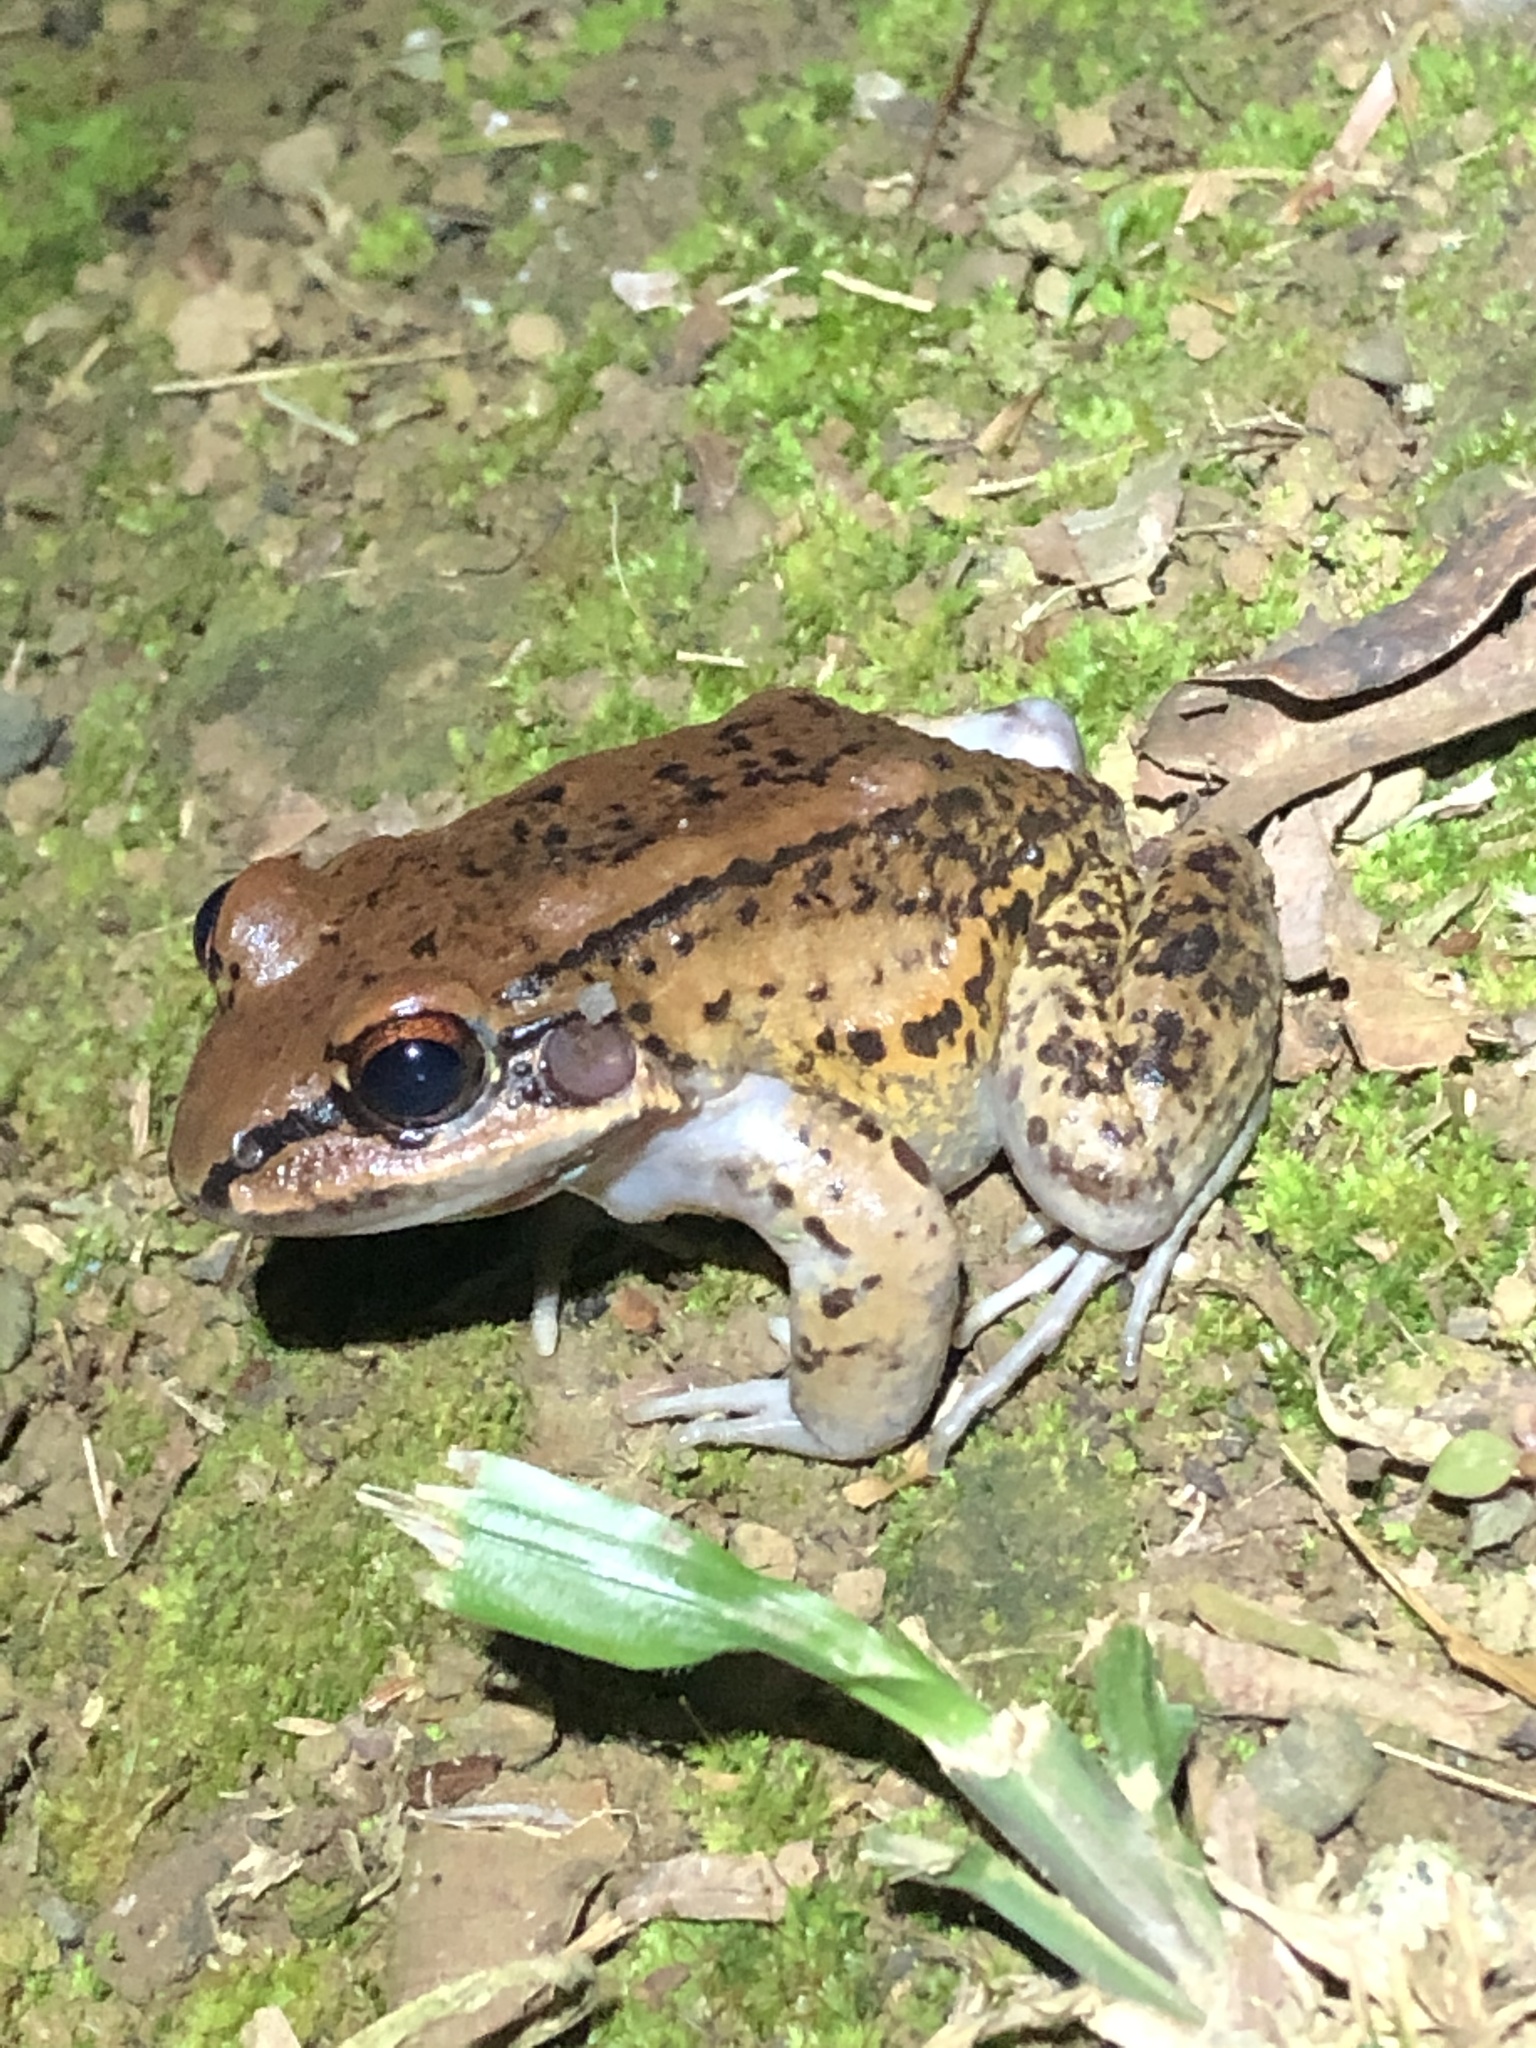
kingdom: Animalia
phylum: Chordata
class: Amphibia
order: Anura
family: Leptodactylidae
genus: Leptodactylus
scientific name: Leptodactylus rhodonotus
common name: Peru white-lipped frog
